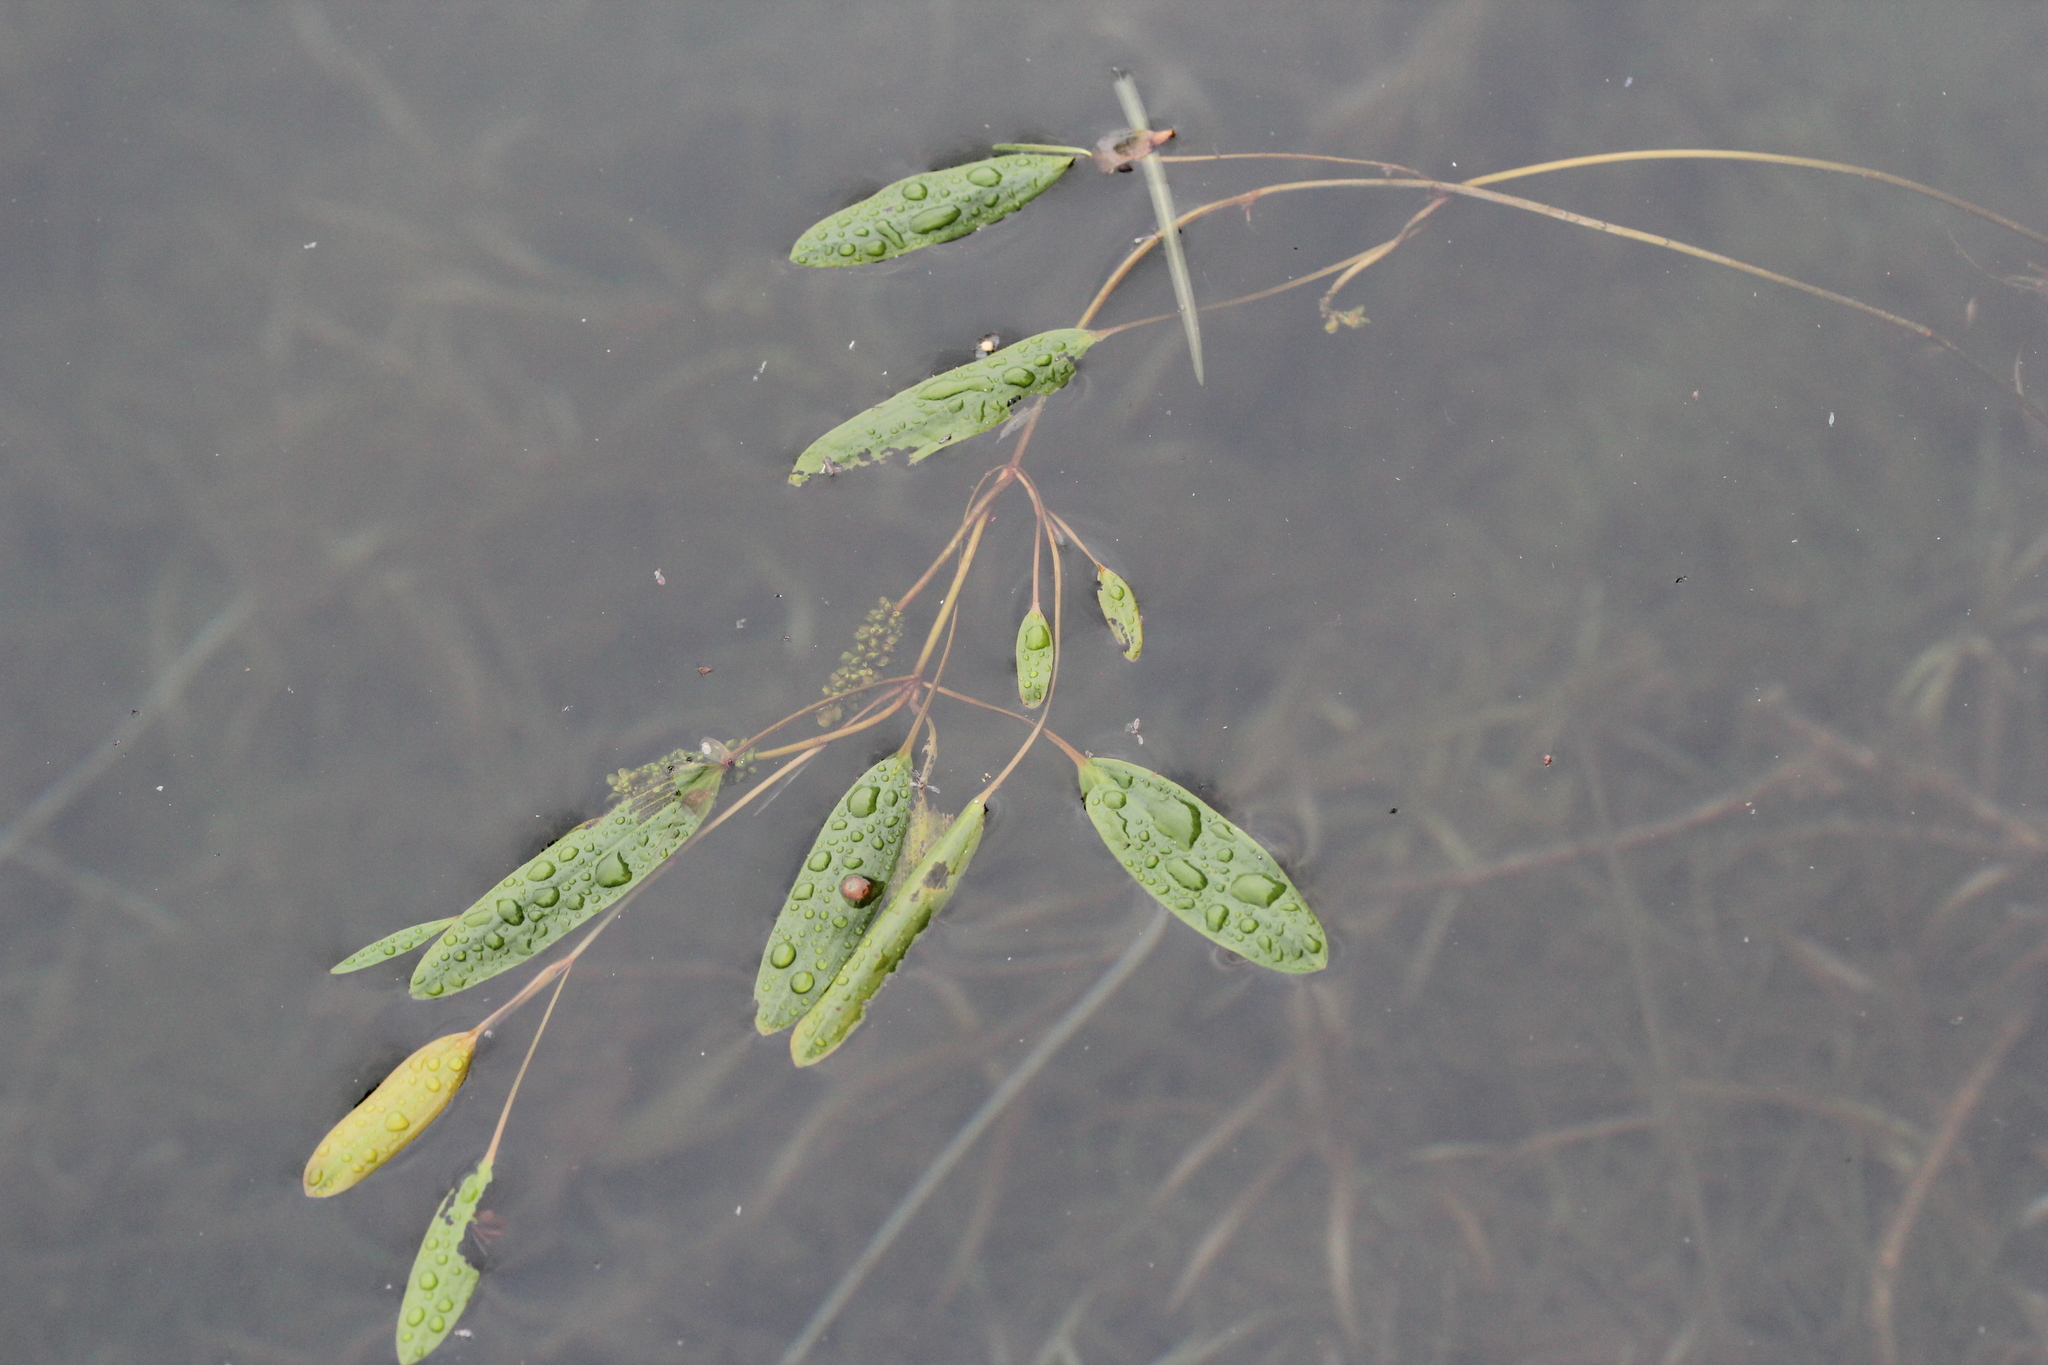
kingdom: Plantae
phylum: Tracheophyta
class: Liliopsida
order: Alismatales
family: Potamogetonaceae
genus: Potamogeton
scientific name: Potamogeton epihydrus
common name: American pondweed
